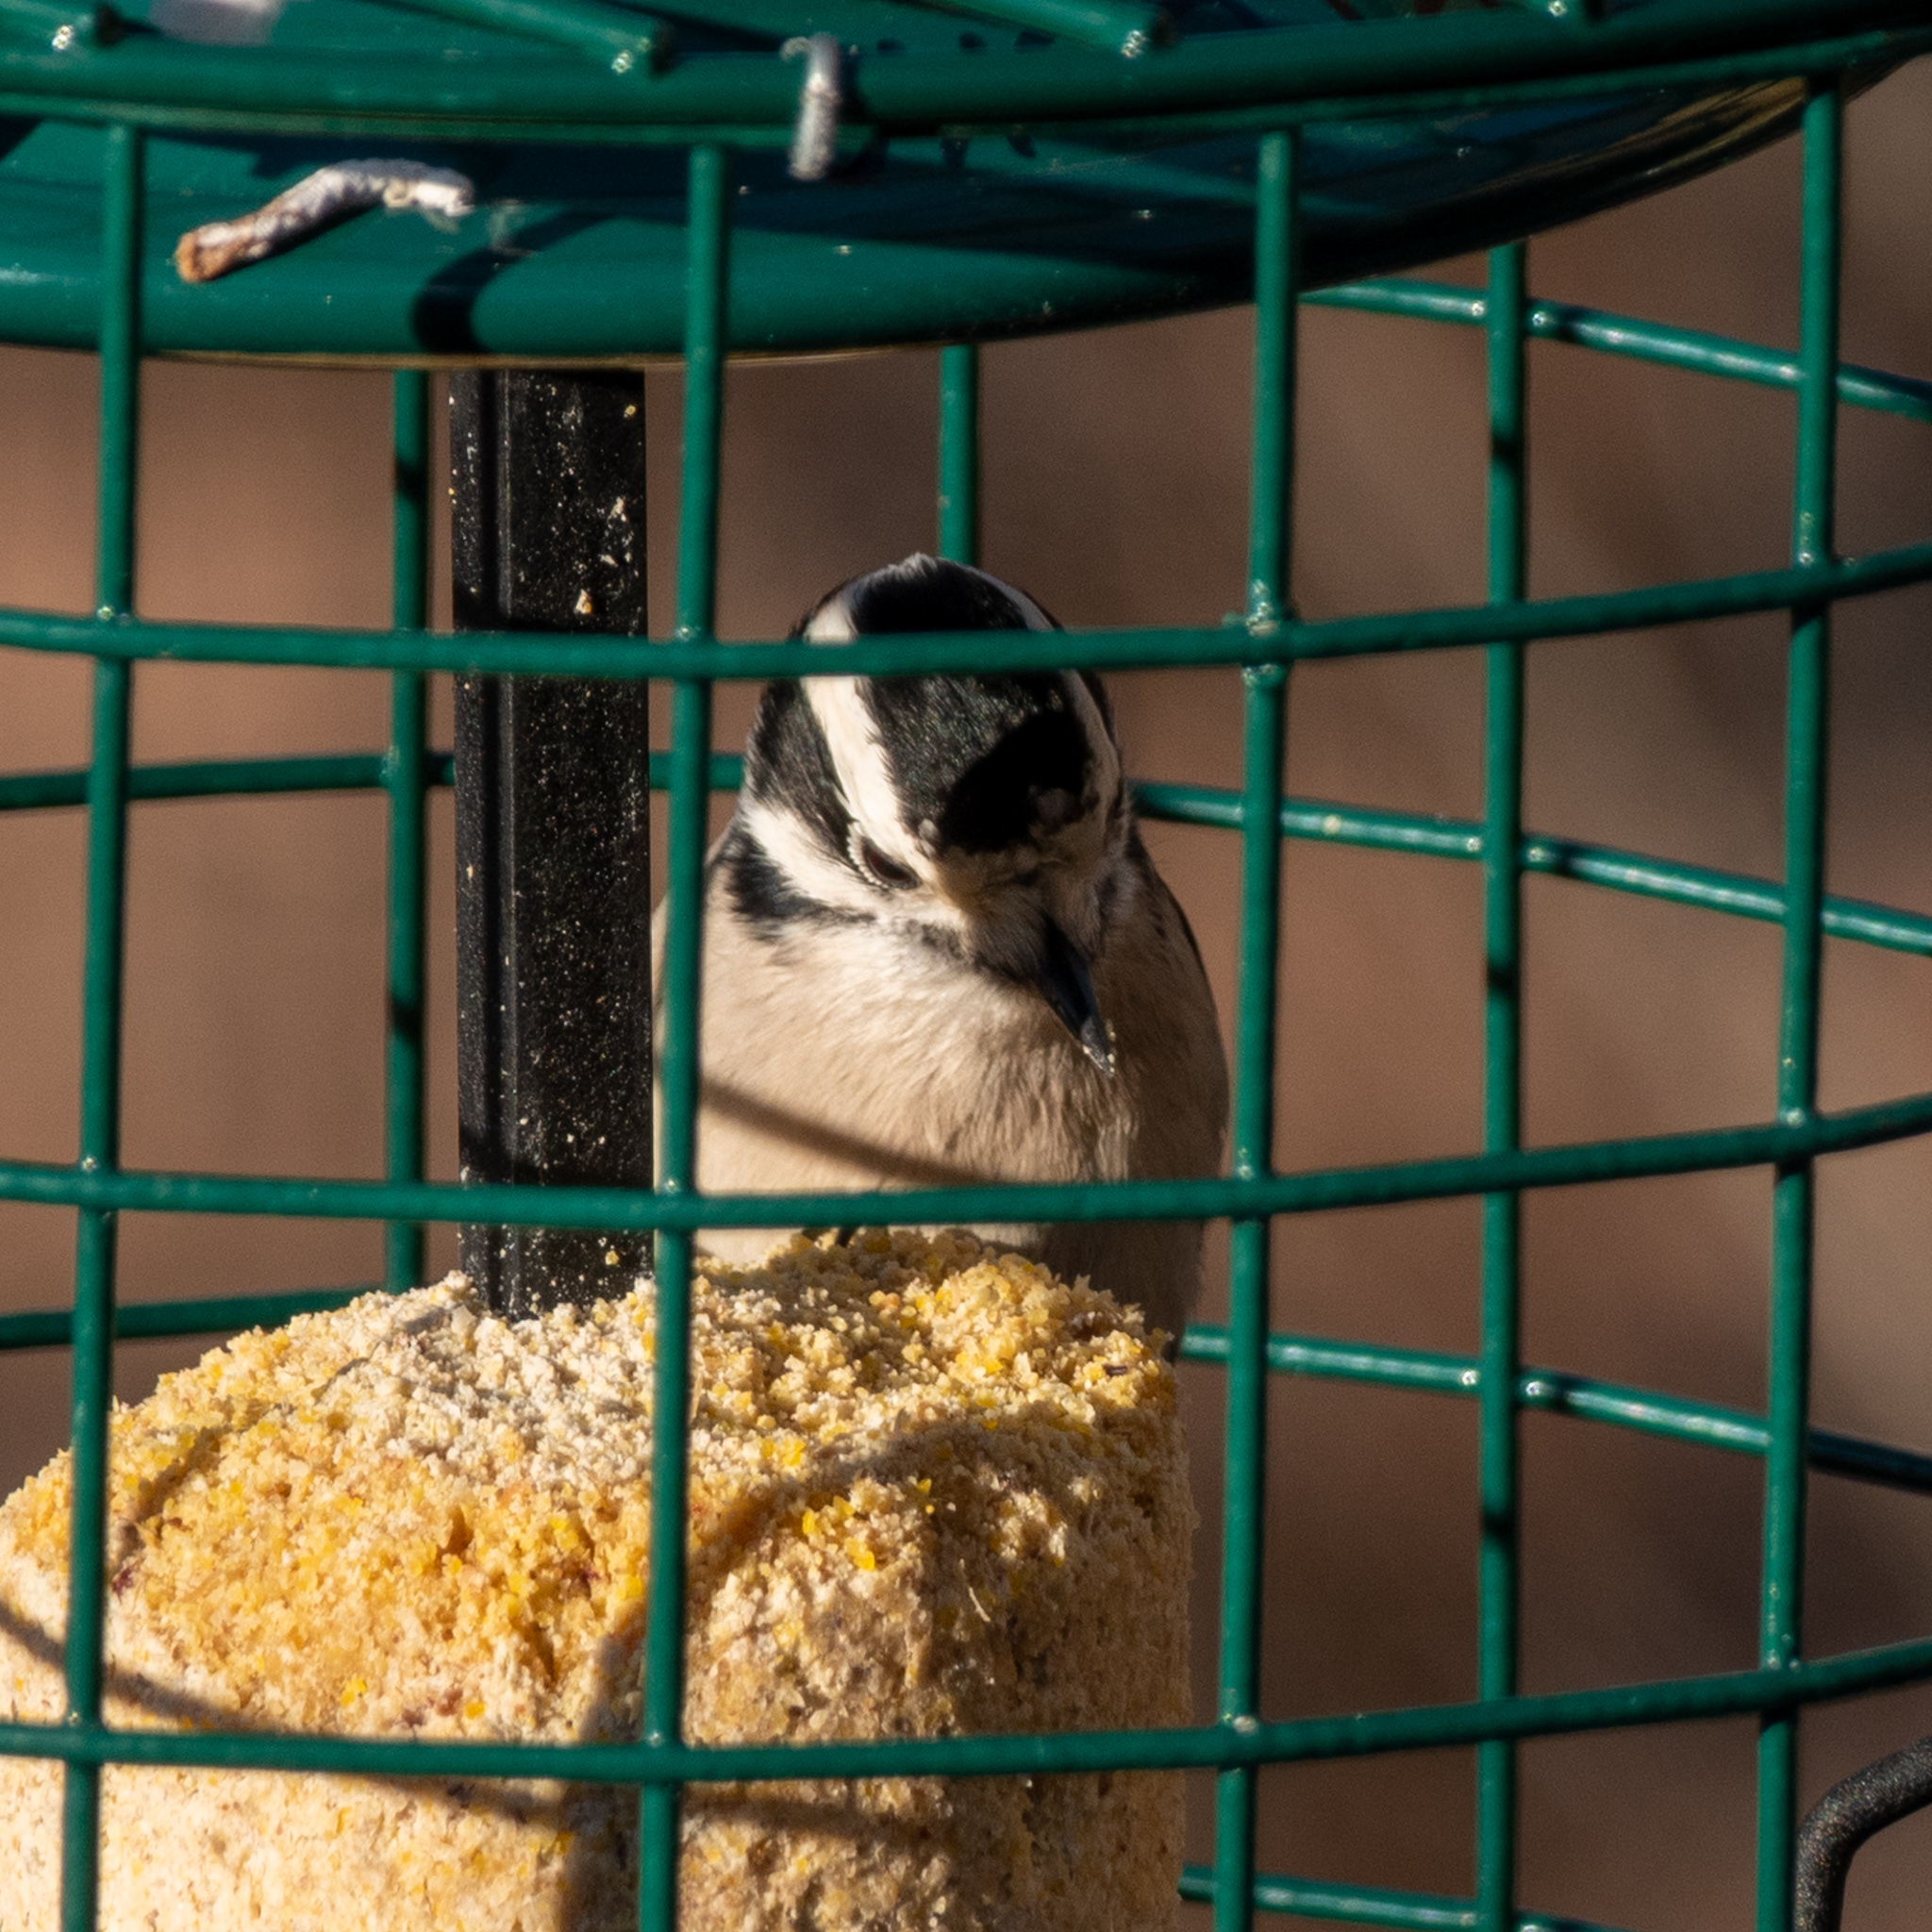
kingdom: Animalia
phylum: Chordata
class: Aves
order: Piciformes
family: Picidae
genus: Dryobates
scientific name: Dryobates pubescens
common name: Downy woodpecker
